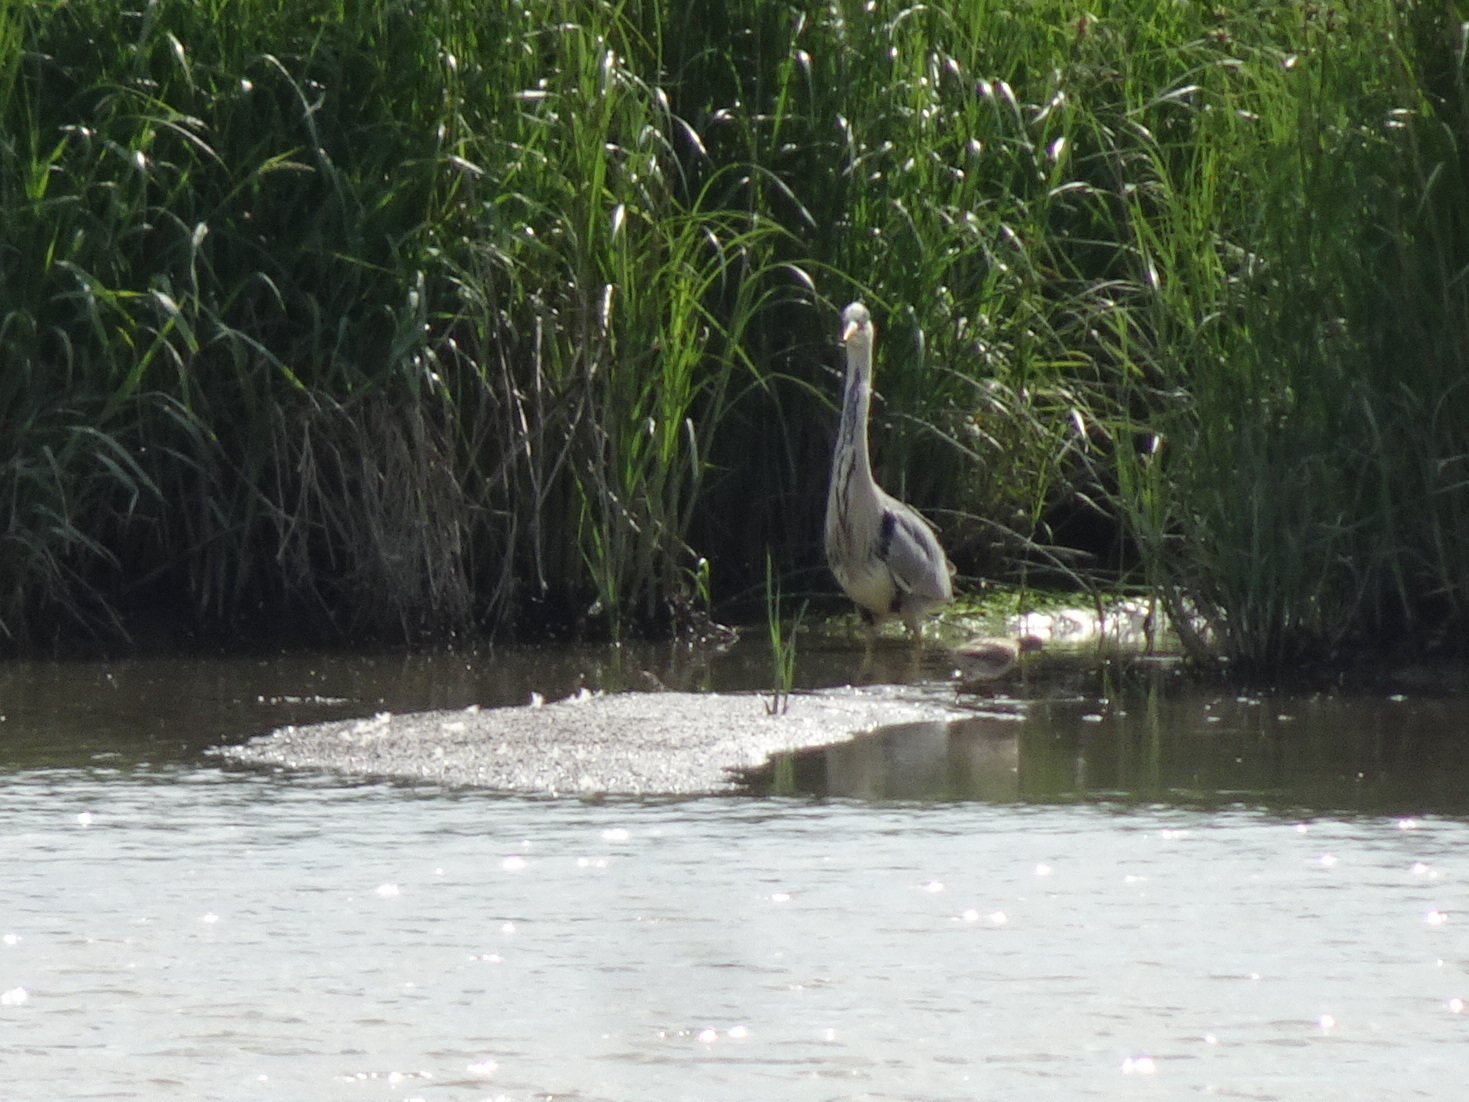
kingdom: Animalia
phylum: Chordata
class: Aves
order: Pelecaniformes
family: Ardeidae
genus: Ardea
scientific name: Ardea cinerea
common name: Grey heron
